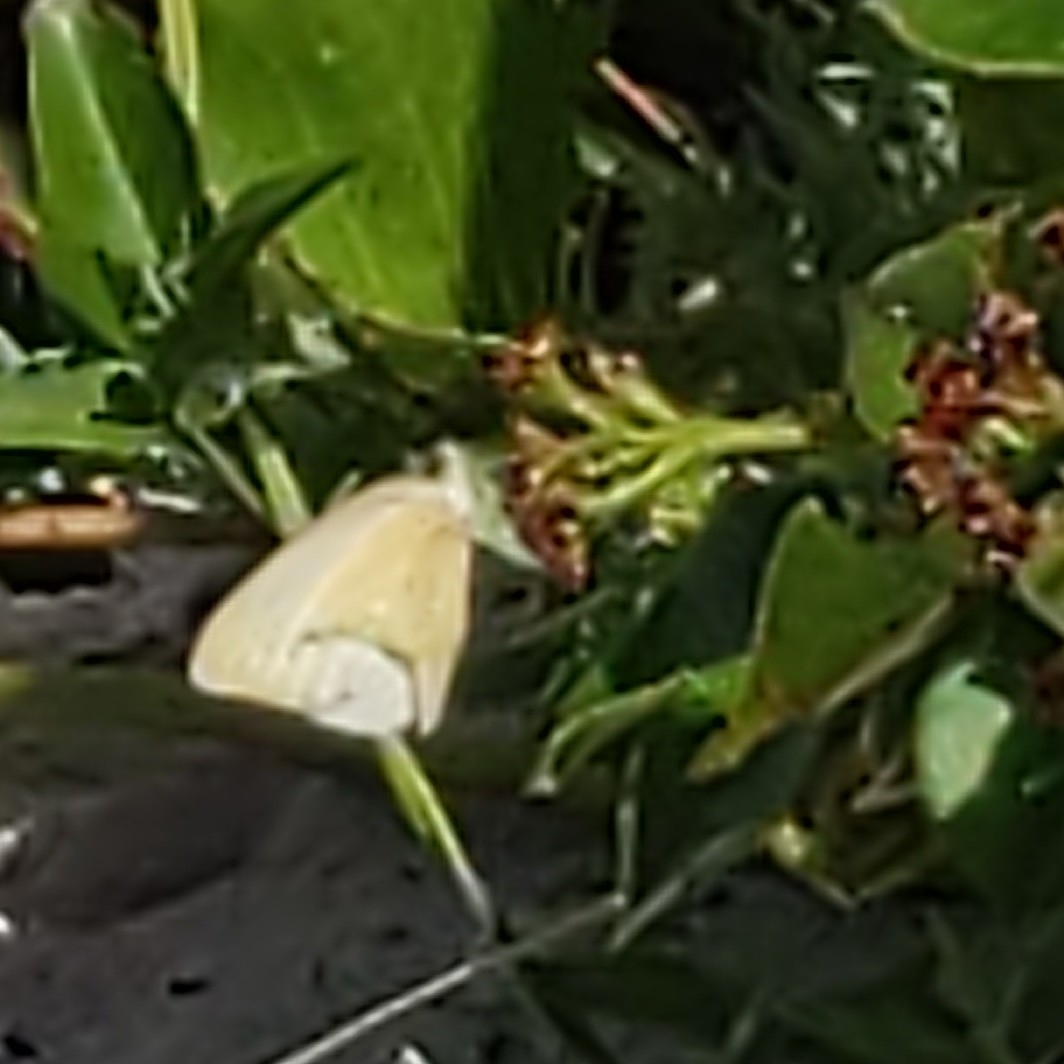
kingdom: Animalia
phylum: Arthropoda
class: Insecta
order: Lepidoptera
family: Pieridae
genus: Ascia
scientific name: Ascia monuste
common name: Great southern white
